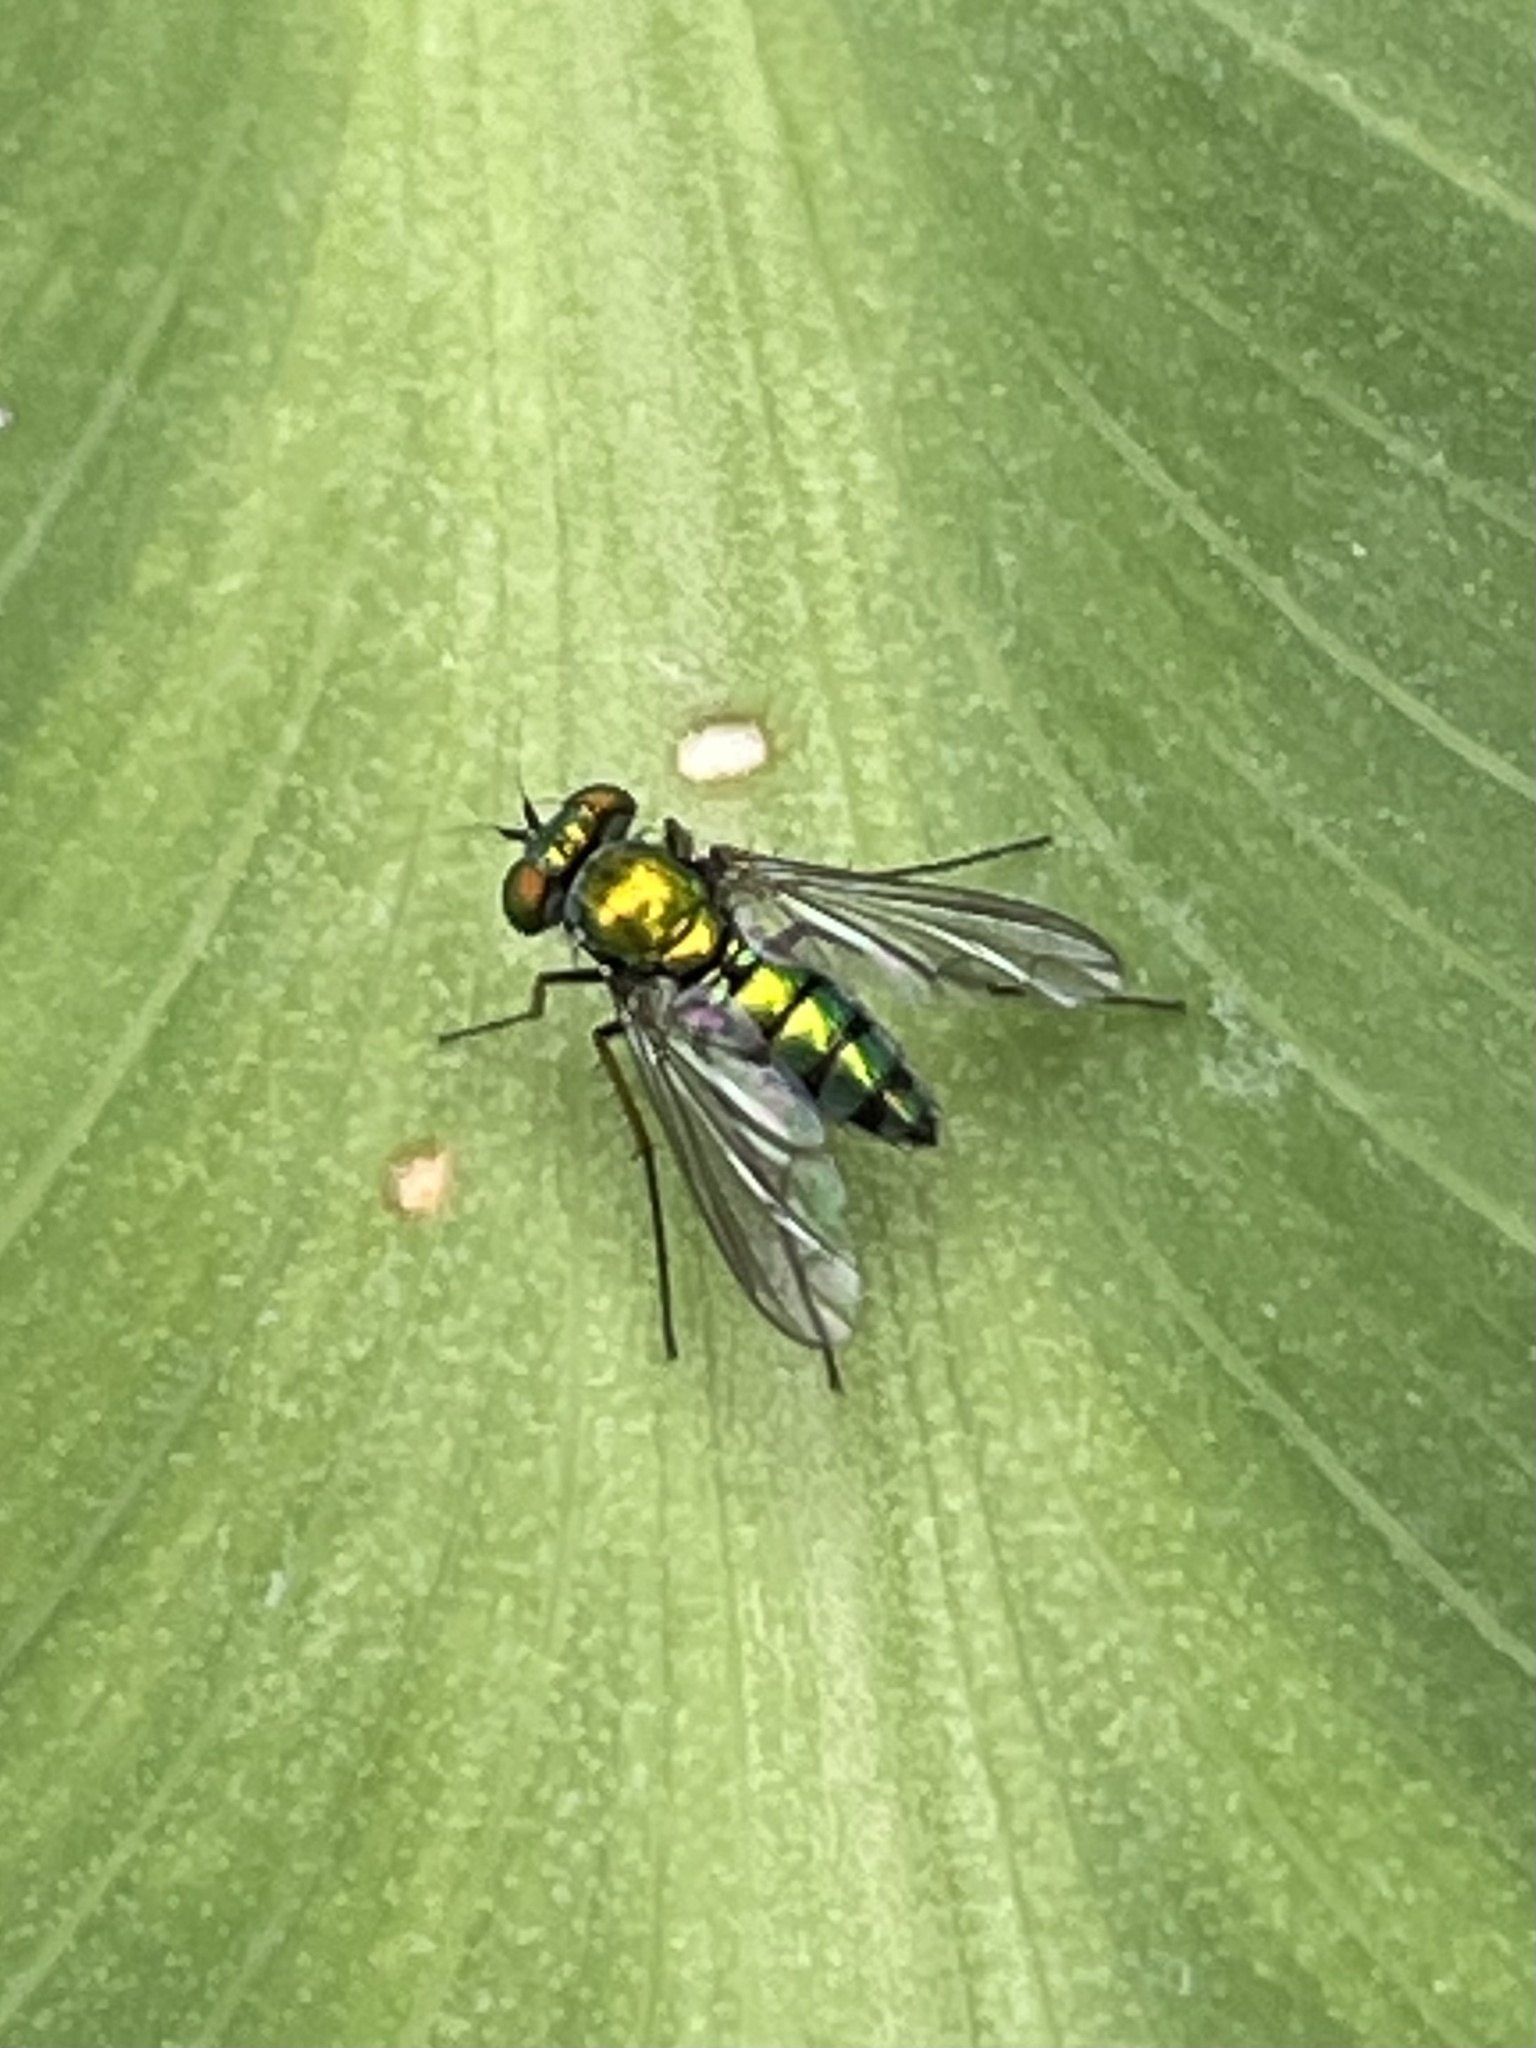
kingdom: Animalia
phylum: Arthropoda
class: Insecta
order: Diptera
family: Dolichopodidae
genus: Condylostylus
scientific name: Condylostylus longicornis
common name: Long-legged fly
